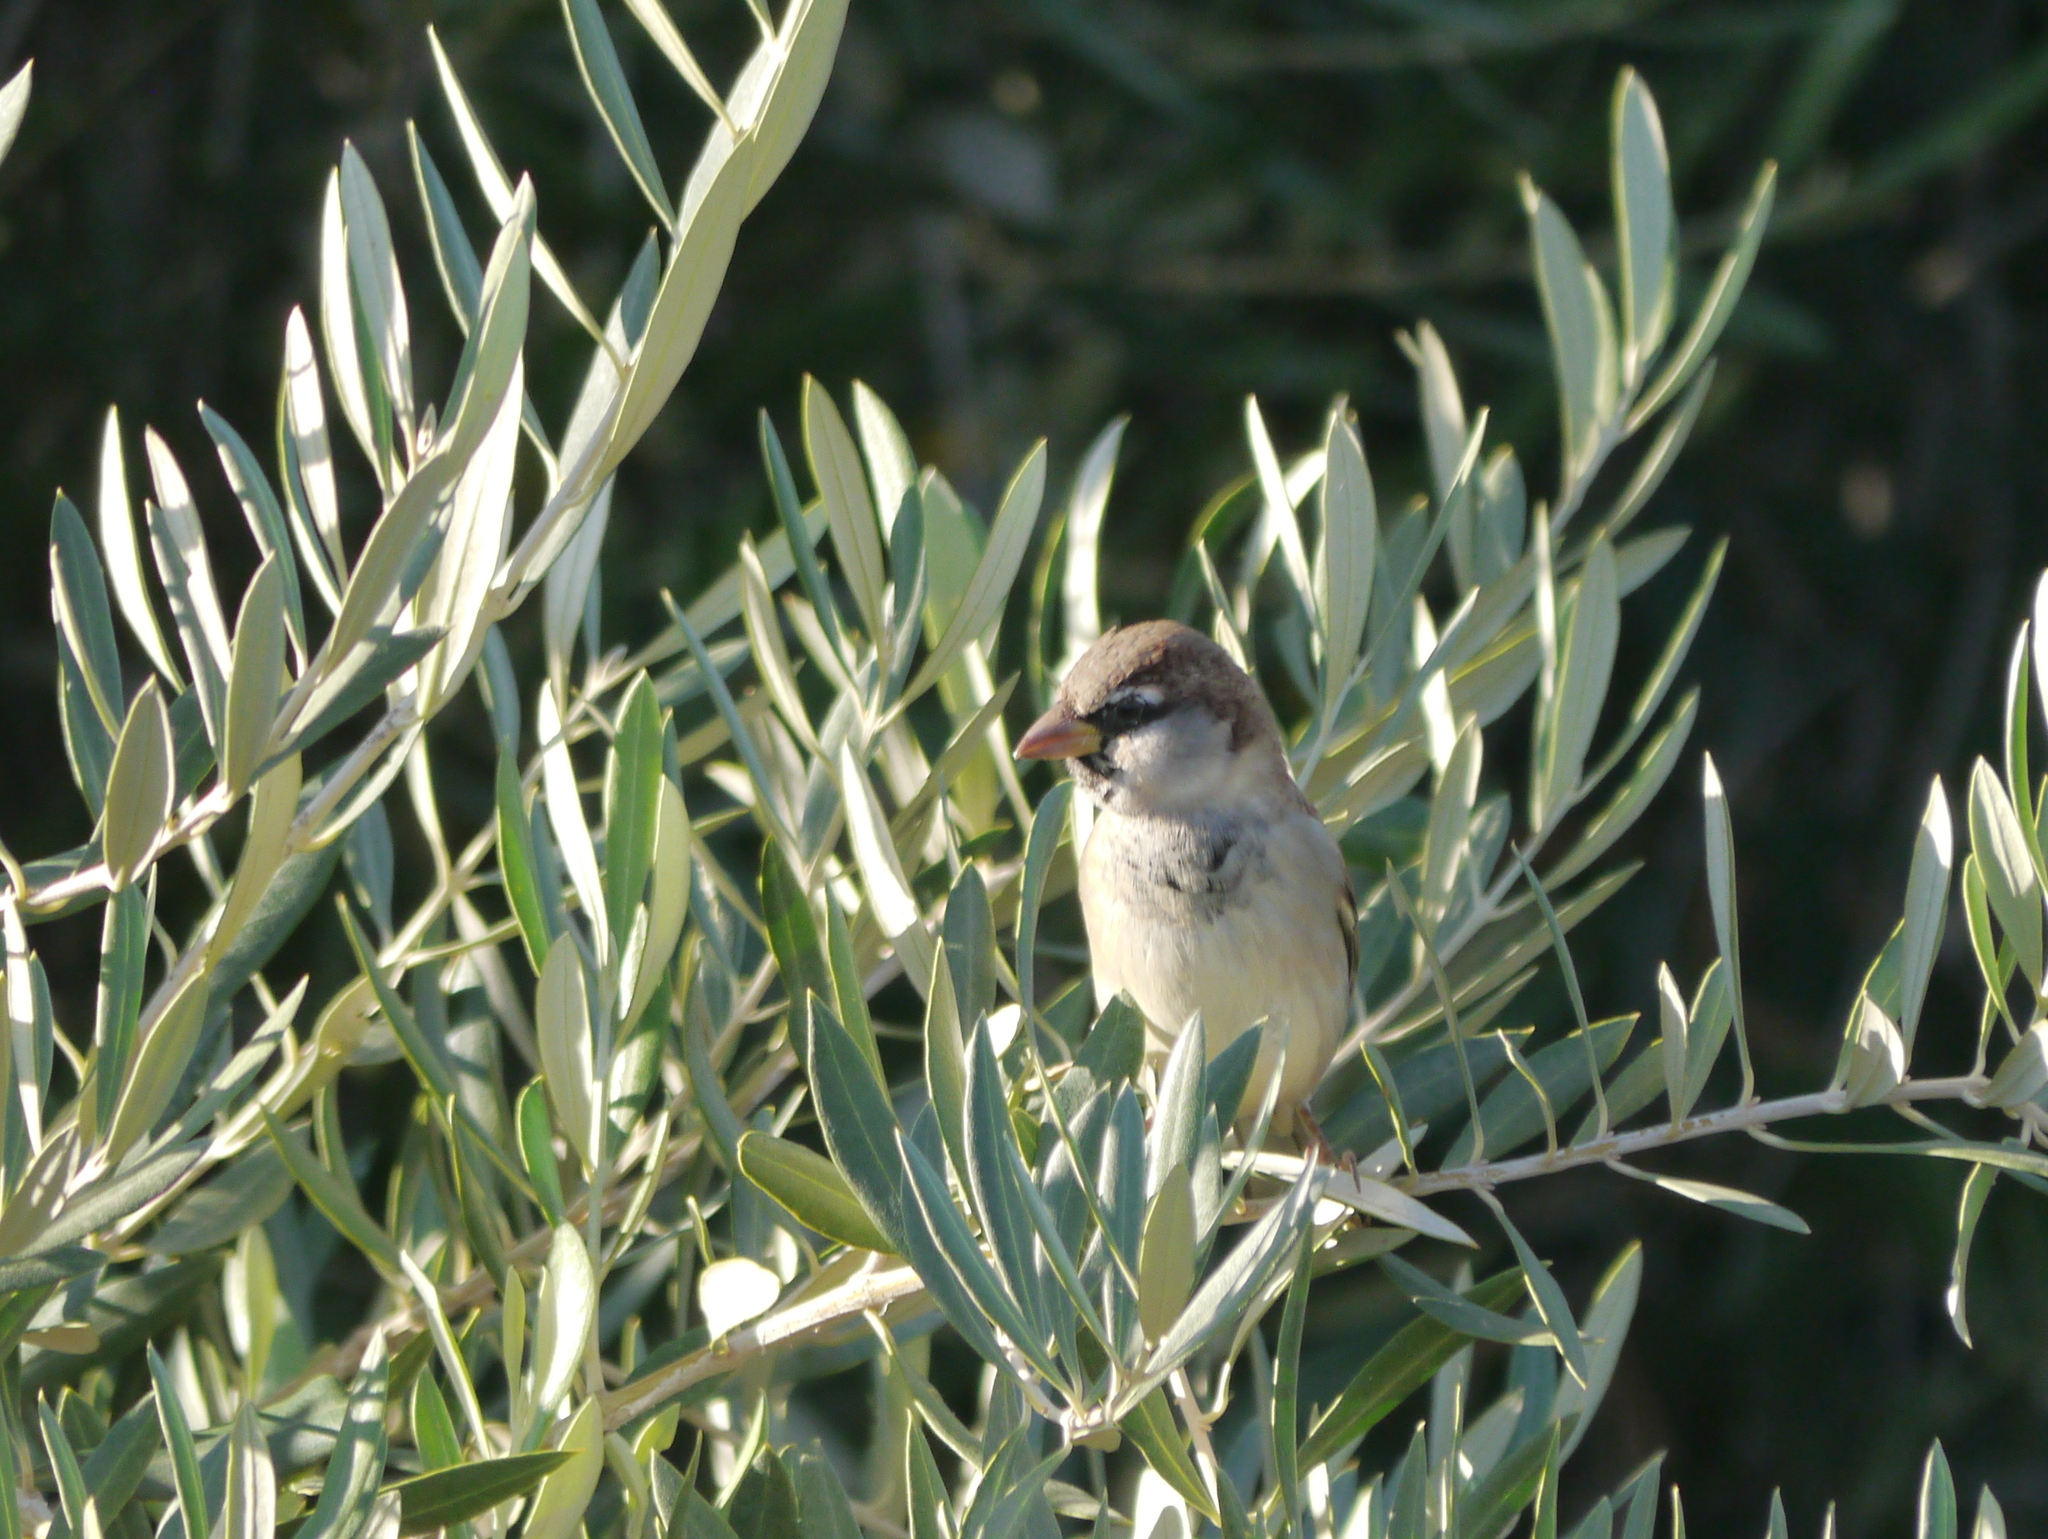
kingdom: Animalia
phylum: Chordata
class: Aves
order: Passeriformes
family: Passeridae
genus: Passer
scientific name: Passer domesticus
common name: House sparrow
